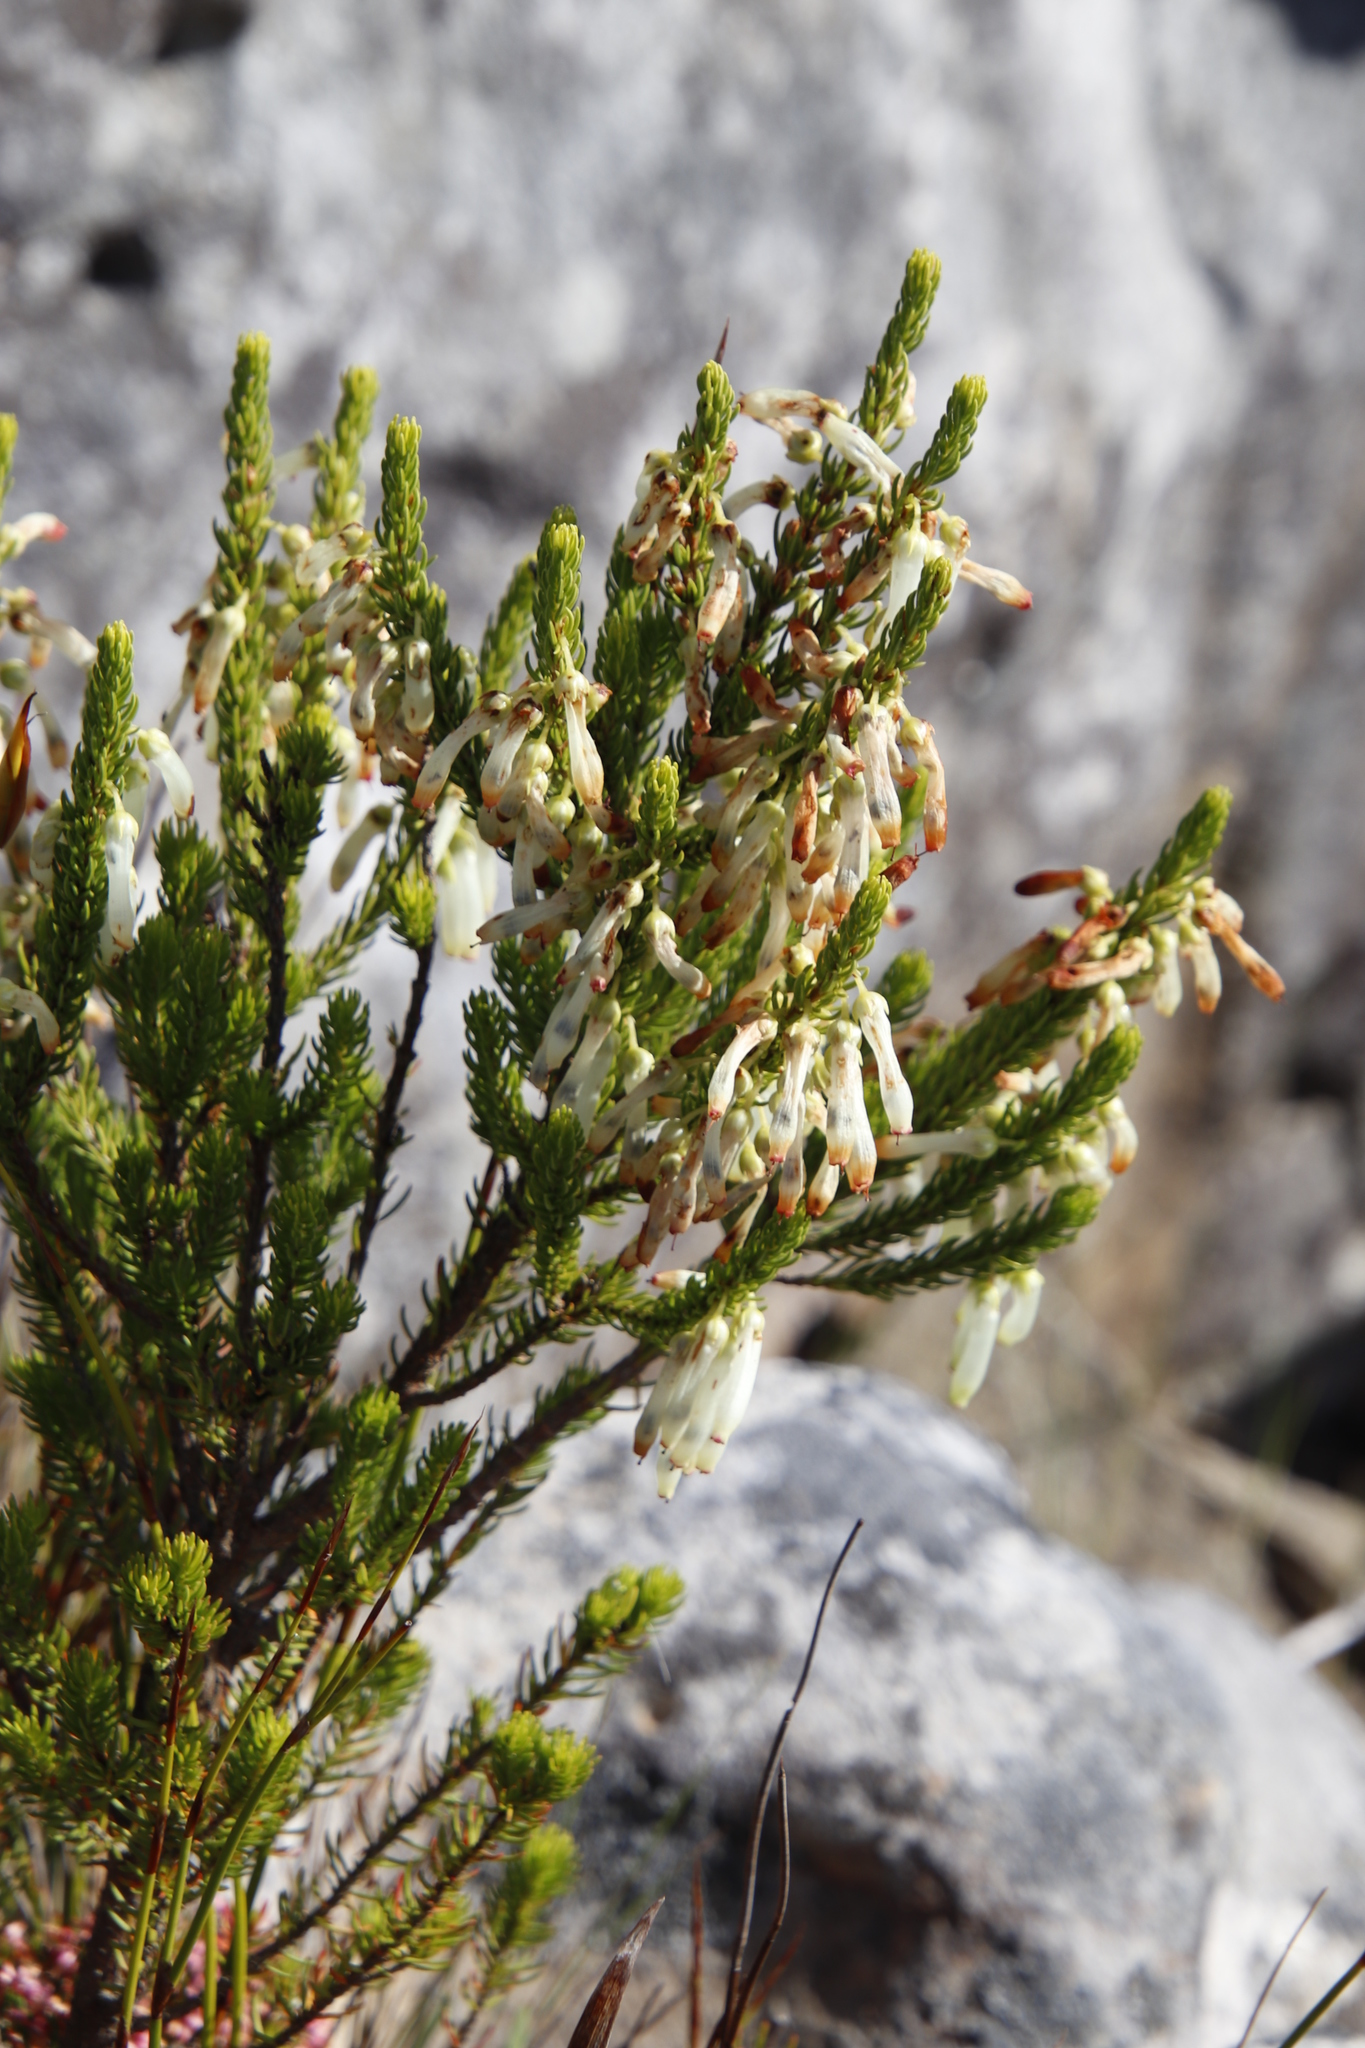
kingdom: Plantae
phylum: Tracheophyta
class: Magnoliopsida
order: Ericales
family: Ericaceae
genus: Erica
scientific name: Erica mammosa
